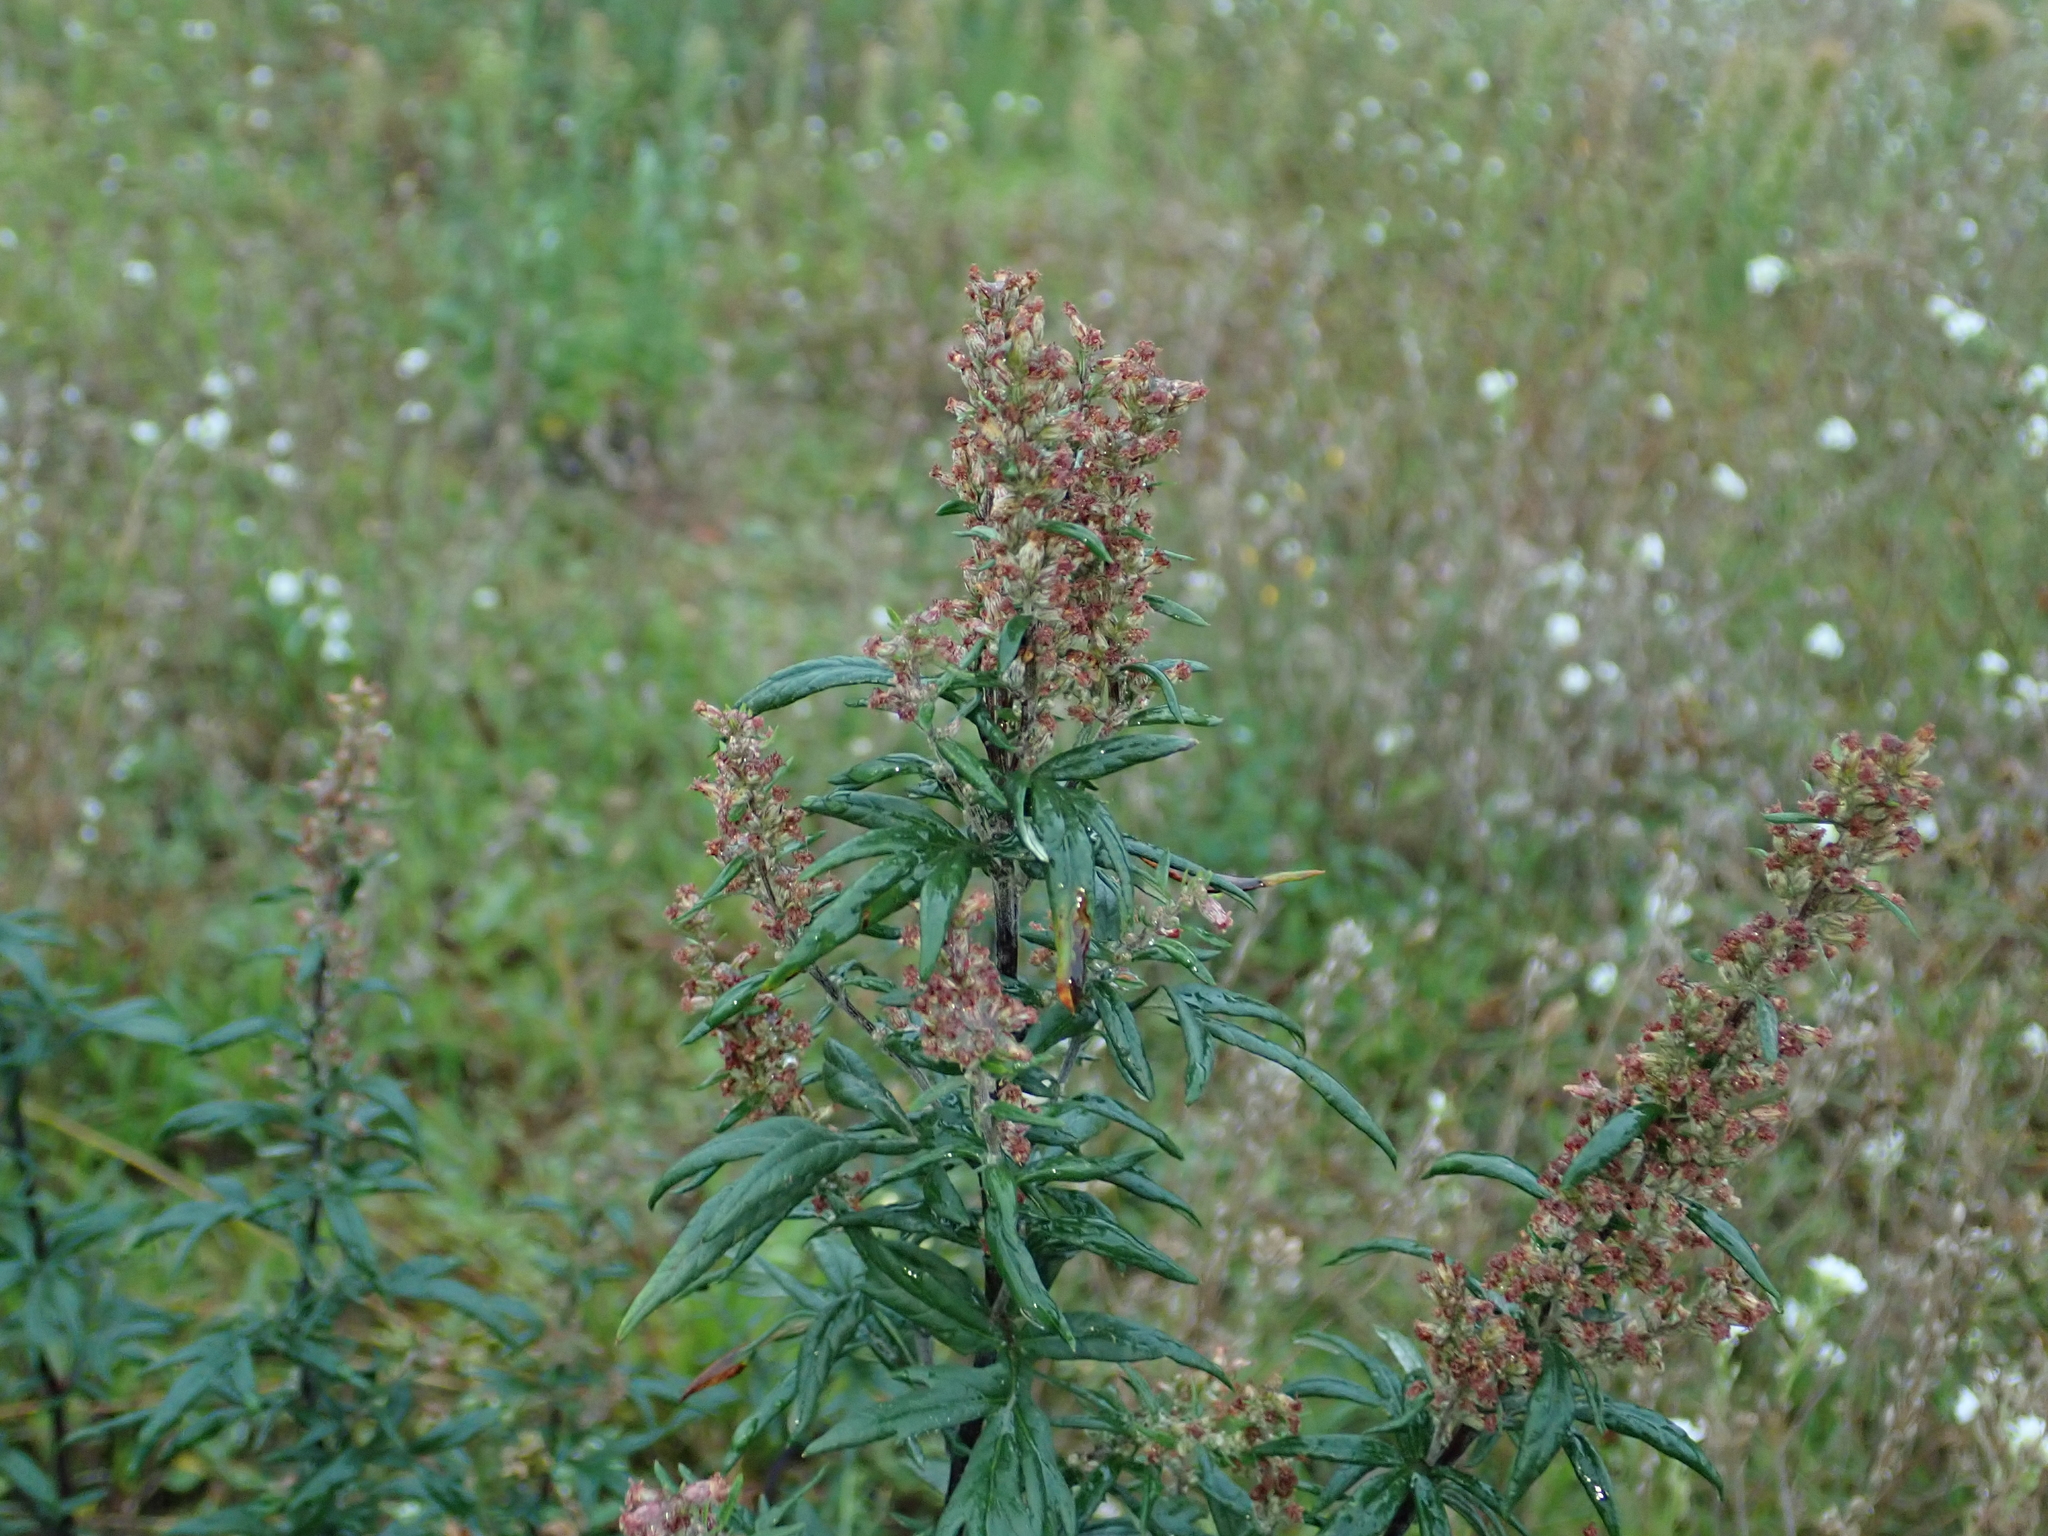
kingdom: Plantae
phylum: Tracheophyta
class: Magnoliopsida
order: Asterales
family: Asteraceae
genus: Artemisia
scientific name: Artemisia vulgaris
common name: Mugwort
